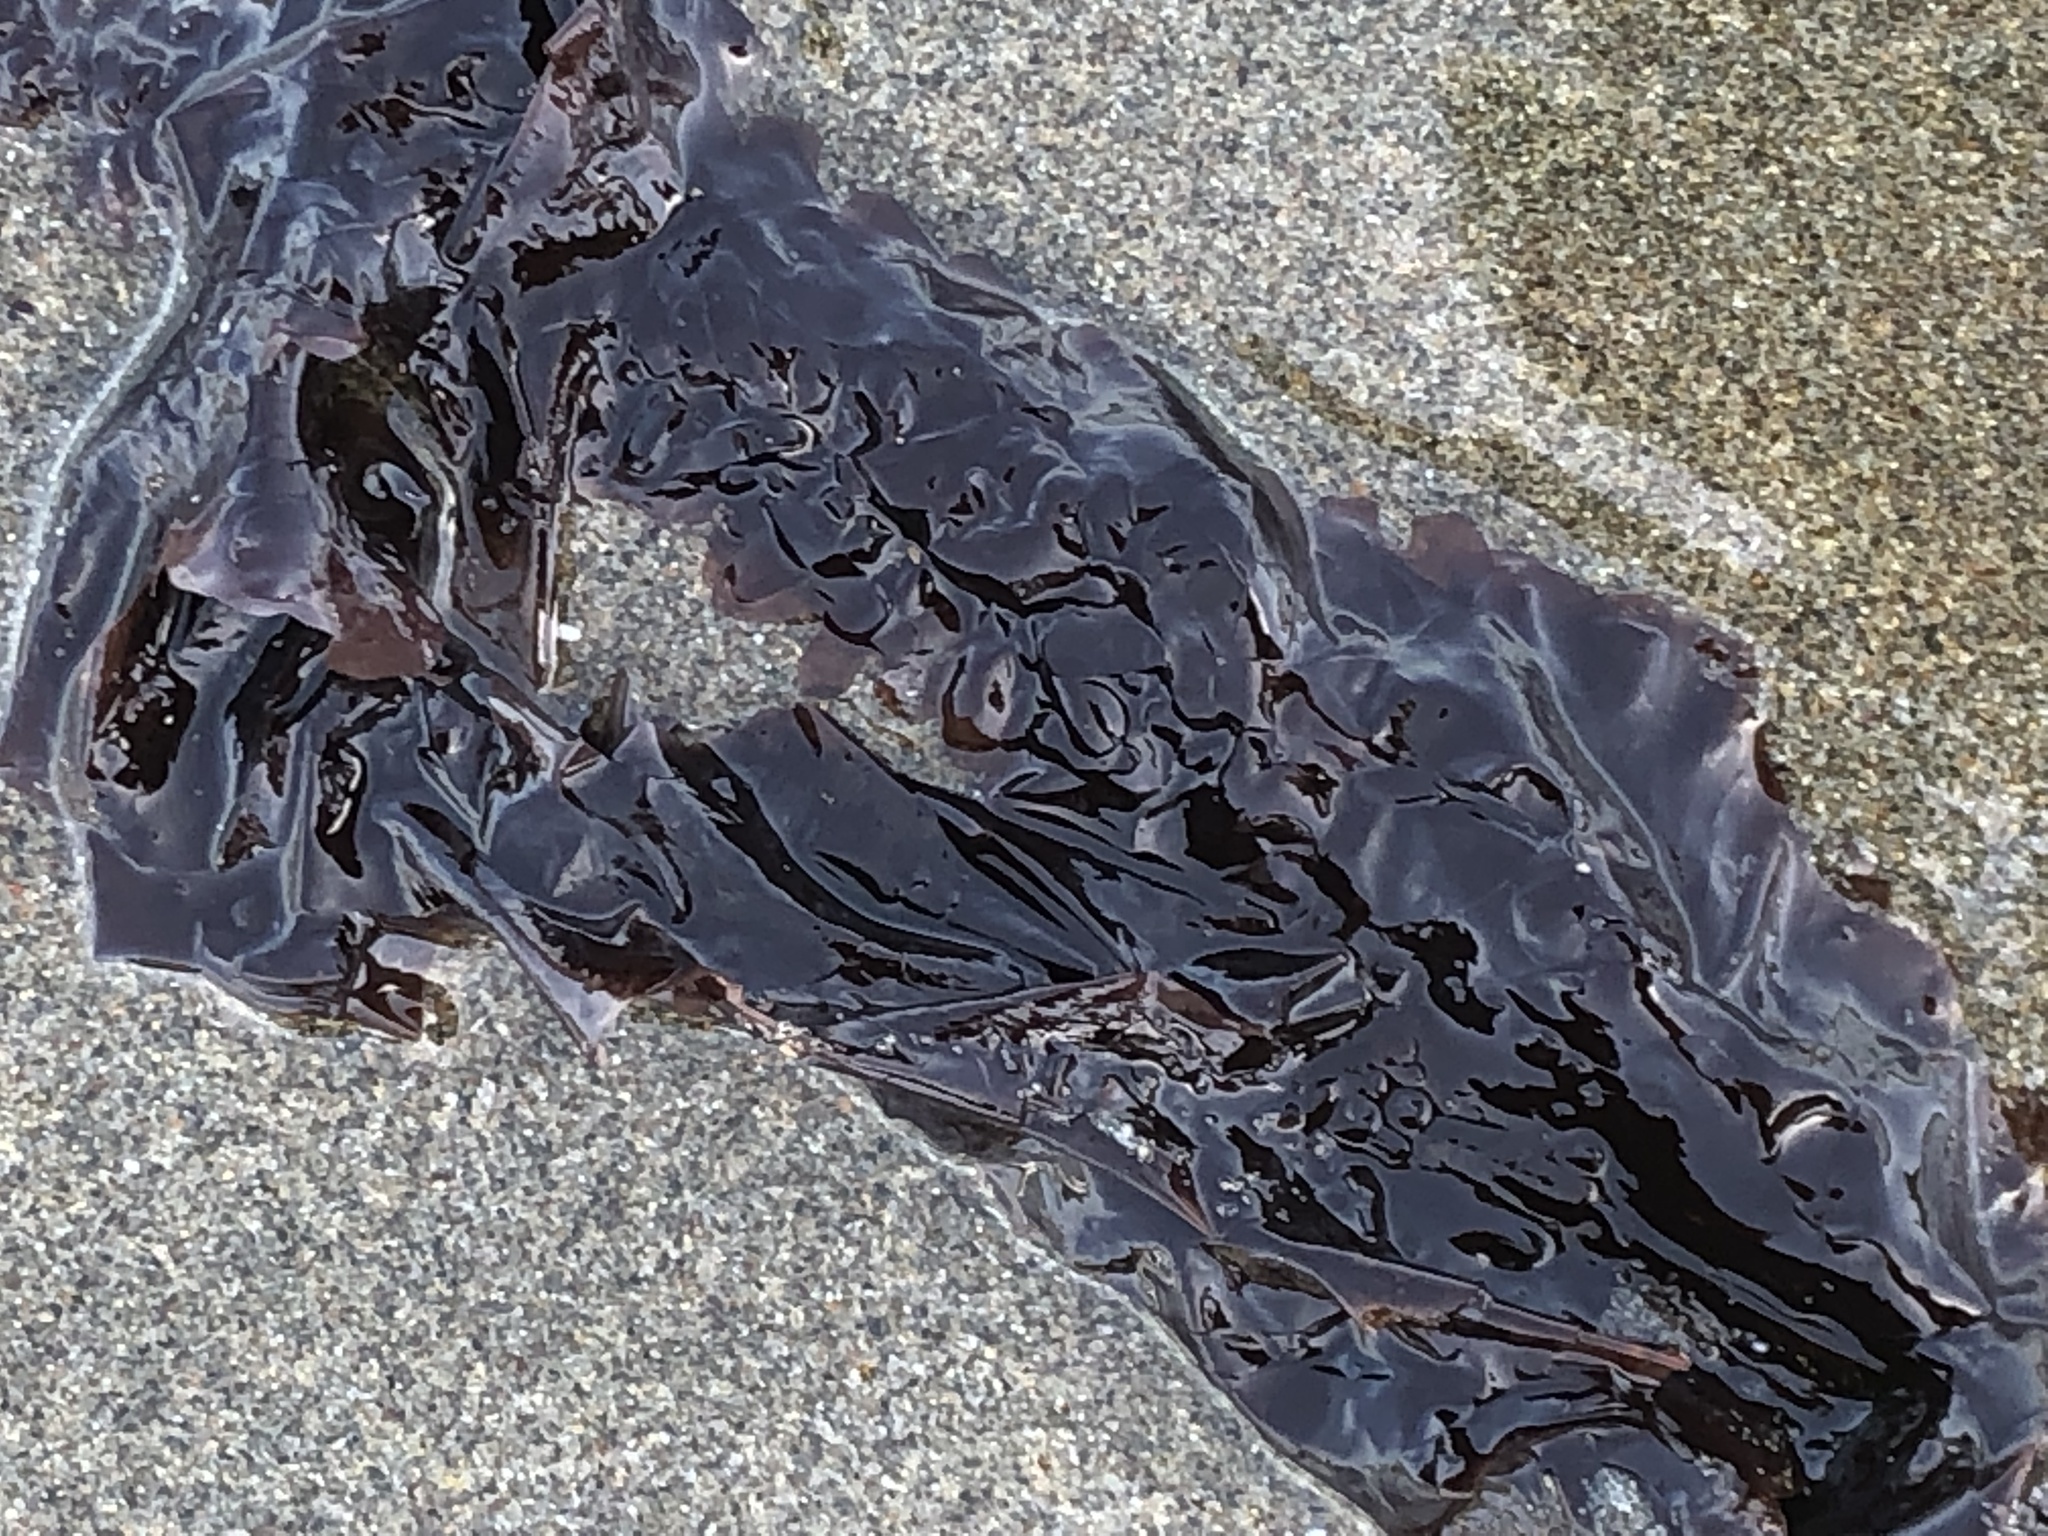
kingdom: Plantae
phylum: Rhodophyta
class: Compsopogonophyceae
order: Erythropeltidales
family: Erythrotrichiaceae
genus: Smithora
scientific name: Smithora naiadum
